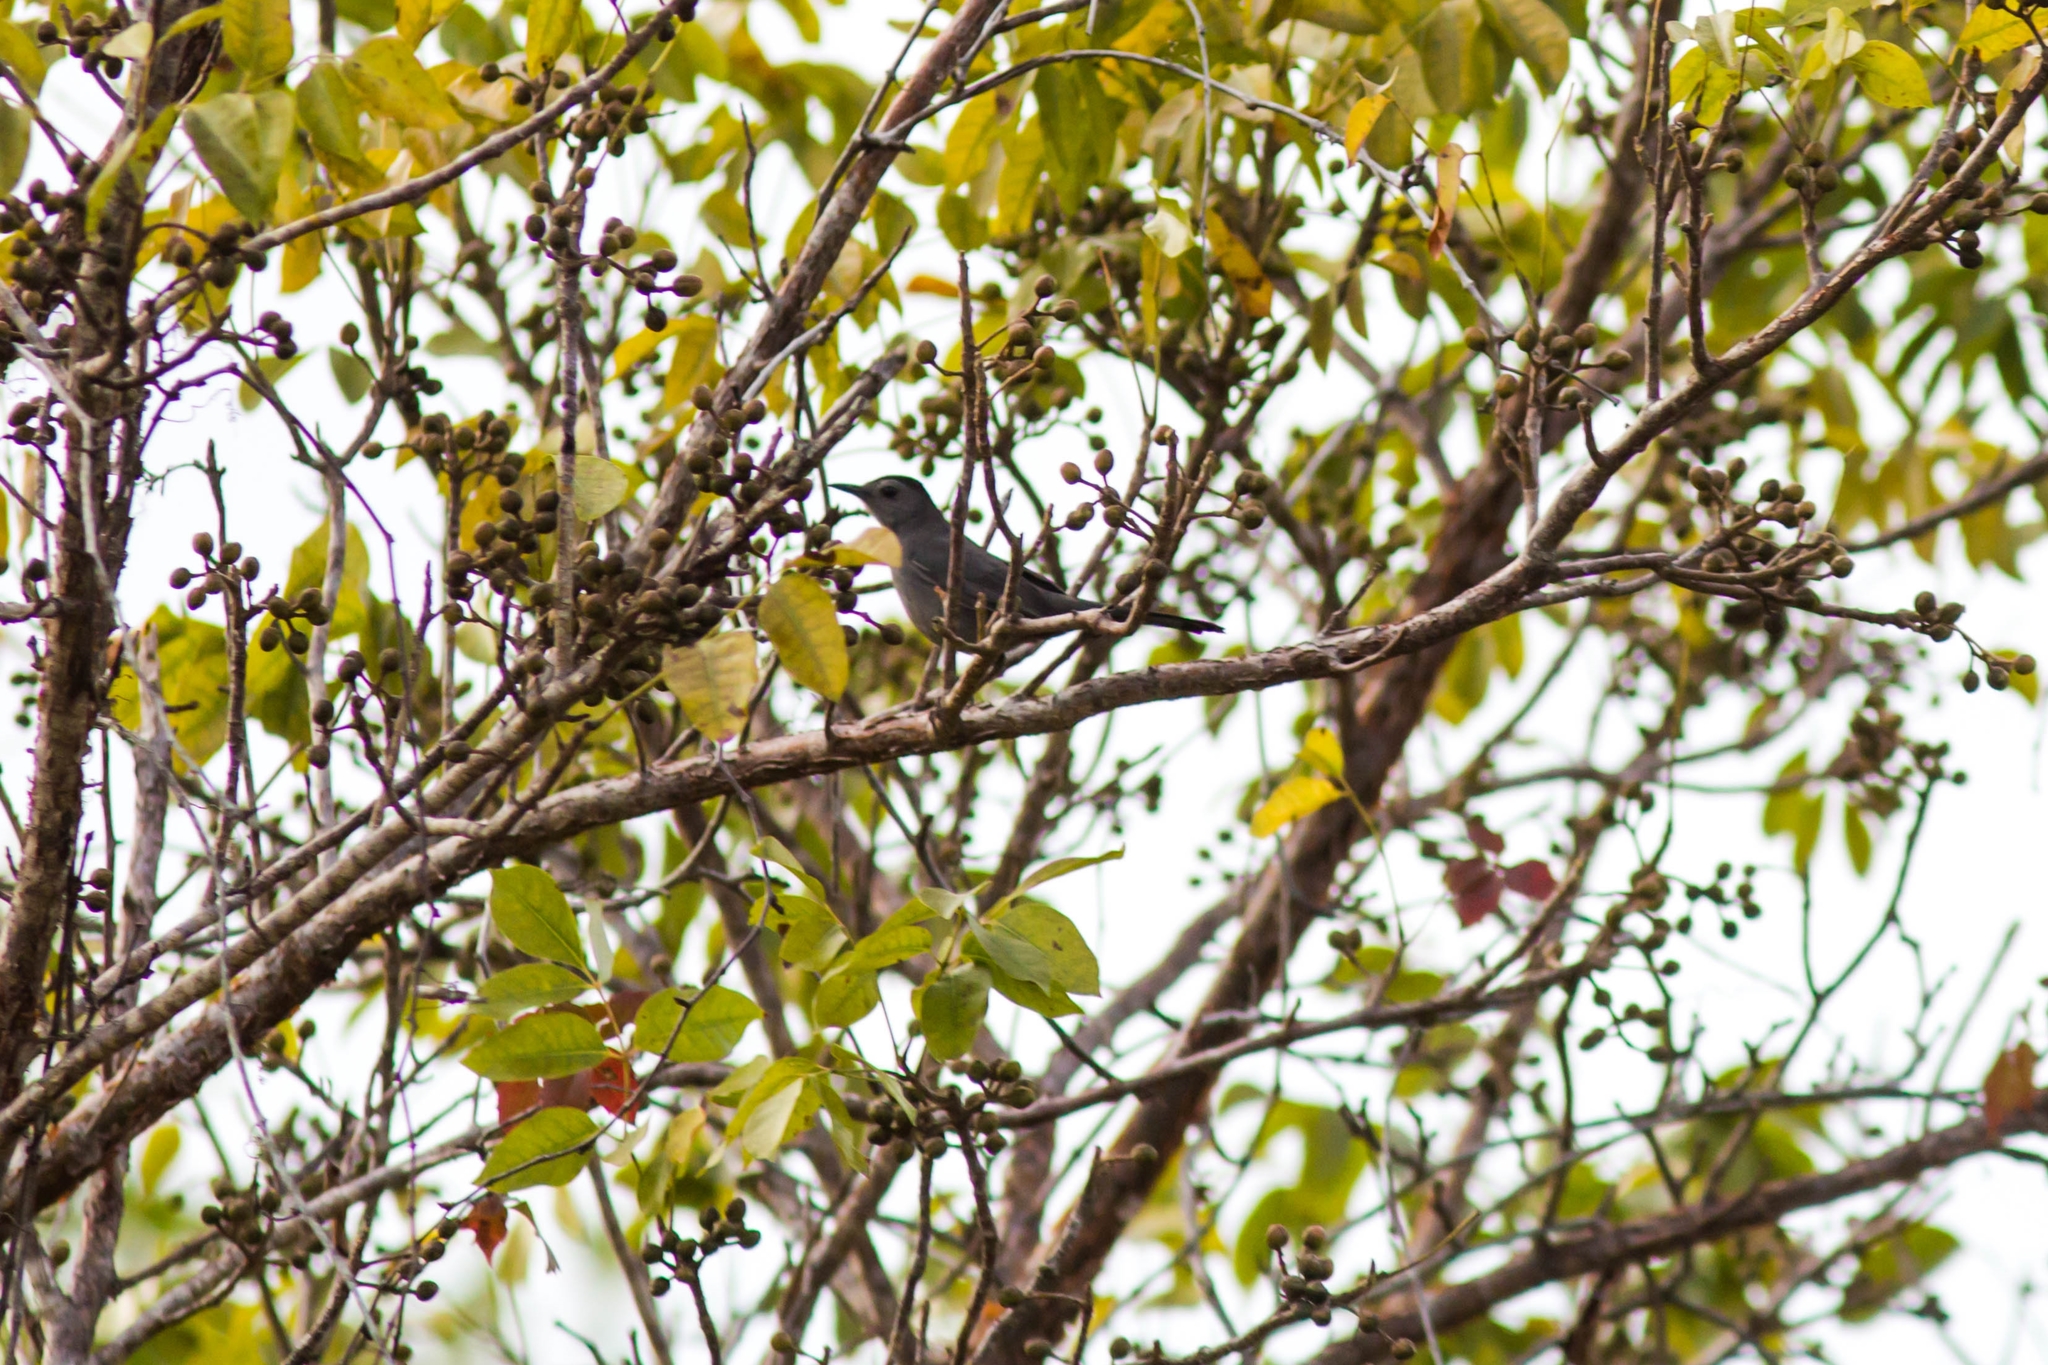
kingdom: Animalia
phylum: Chordata
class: Aves
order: Passeriformes
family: Mimidae
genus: Dumetella
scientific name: Dumetella carolinensis
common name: Gray catbird
